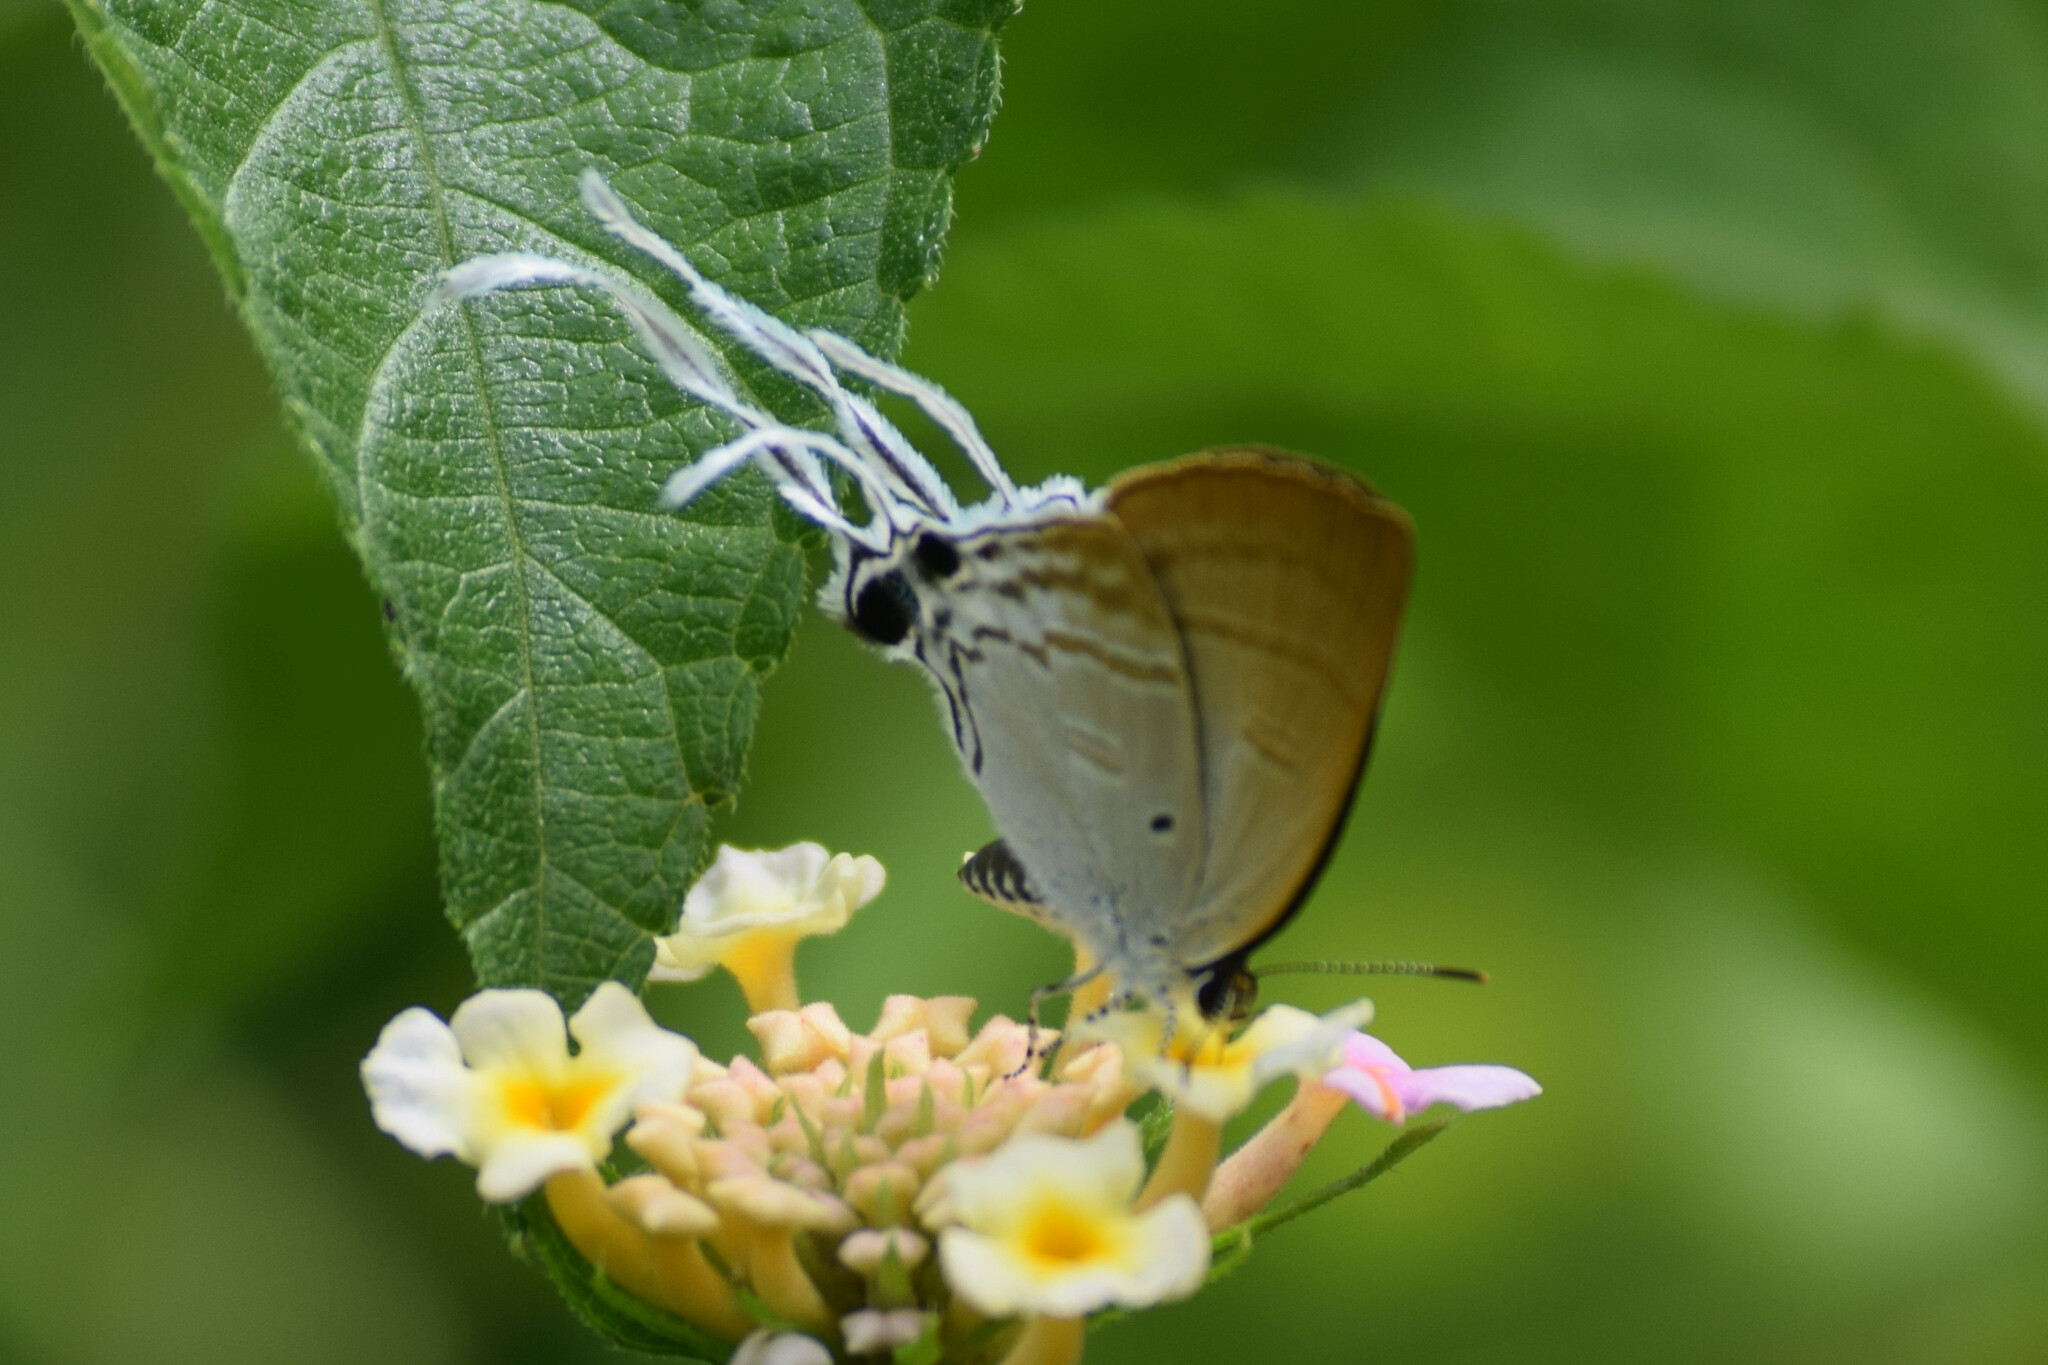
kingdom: Animalia
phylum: Arthropoda
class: Insecta
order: Lepidoptera
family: Lycaenidae
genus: Zeltus
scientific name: Zeltus amasa
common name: Fluffy tit
